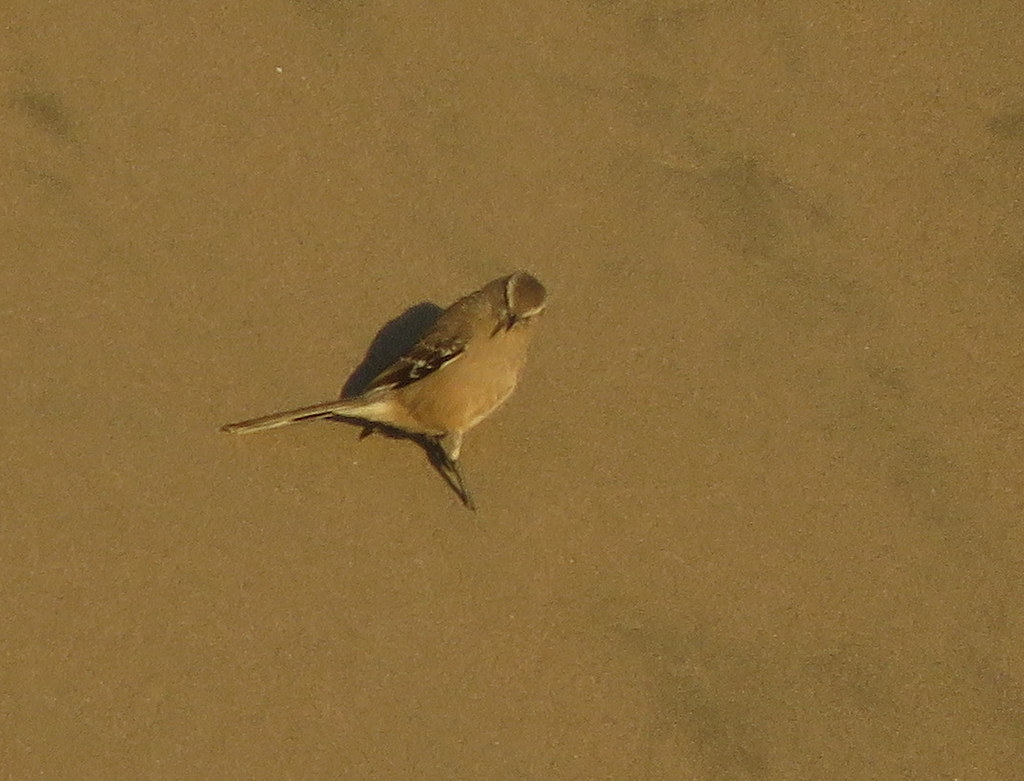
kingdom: Animalia
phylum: Chordata
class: Aves
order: Passeriformes
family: Mimidae
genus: Mimus
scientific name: Mimus patagonicus
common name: Patagonian mockingbird
